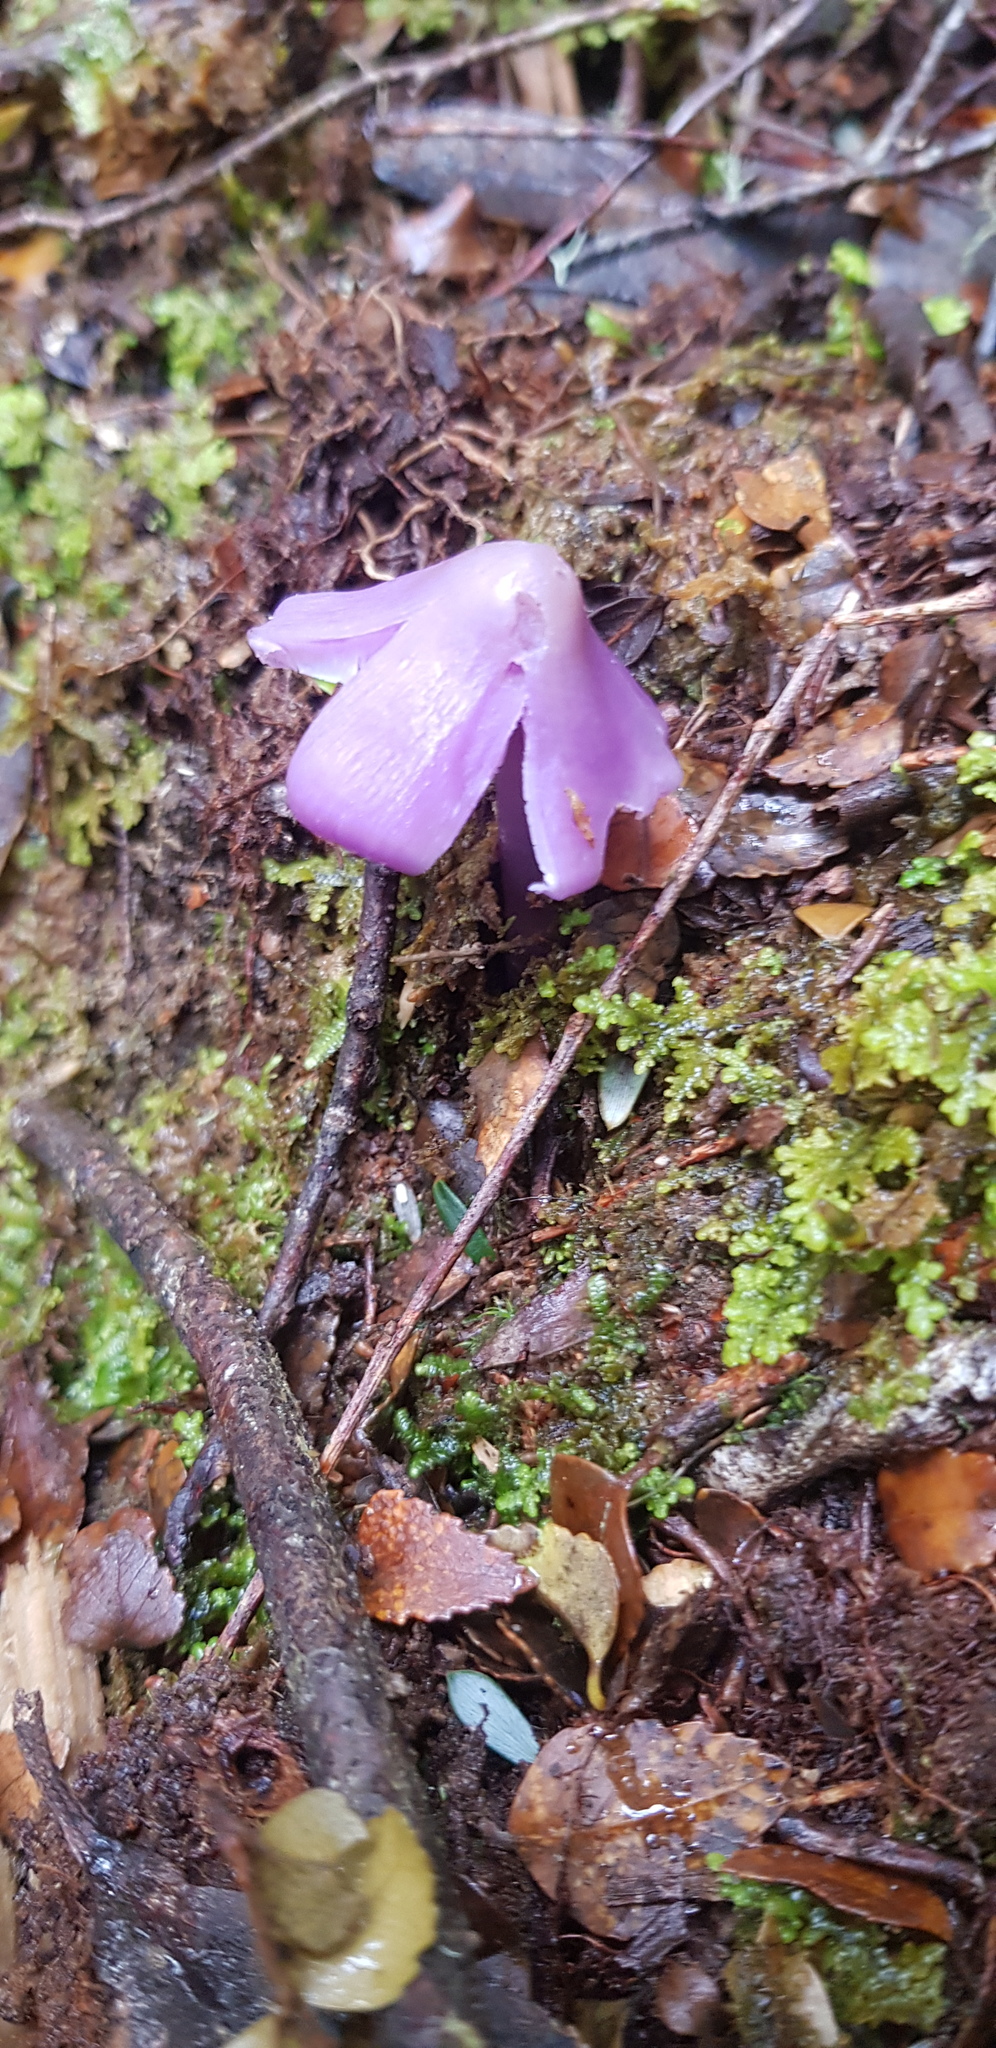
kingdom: Fungi
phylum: Basidiomycota
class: Agaricomycetes
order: Agaricales
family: Hygrophoraceae
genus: Porpolomopsis
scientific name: Porpolomopsis lewelliniae
